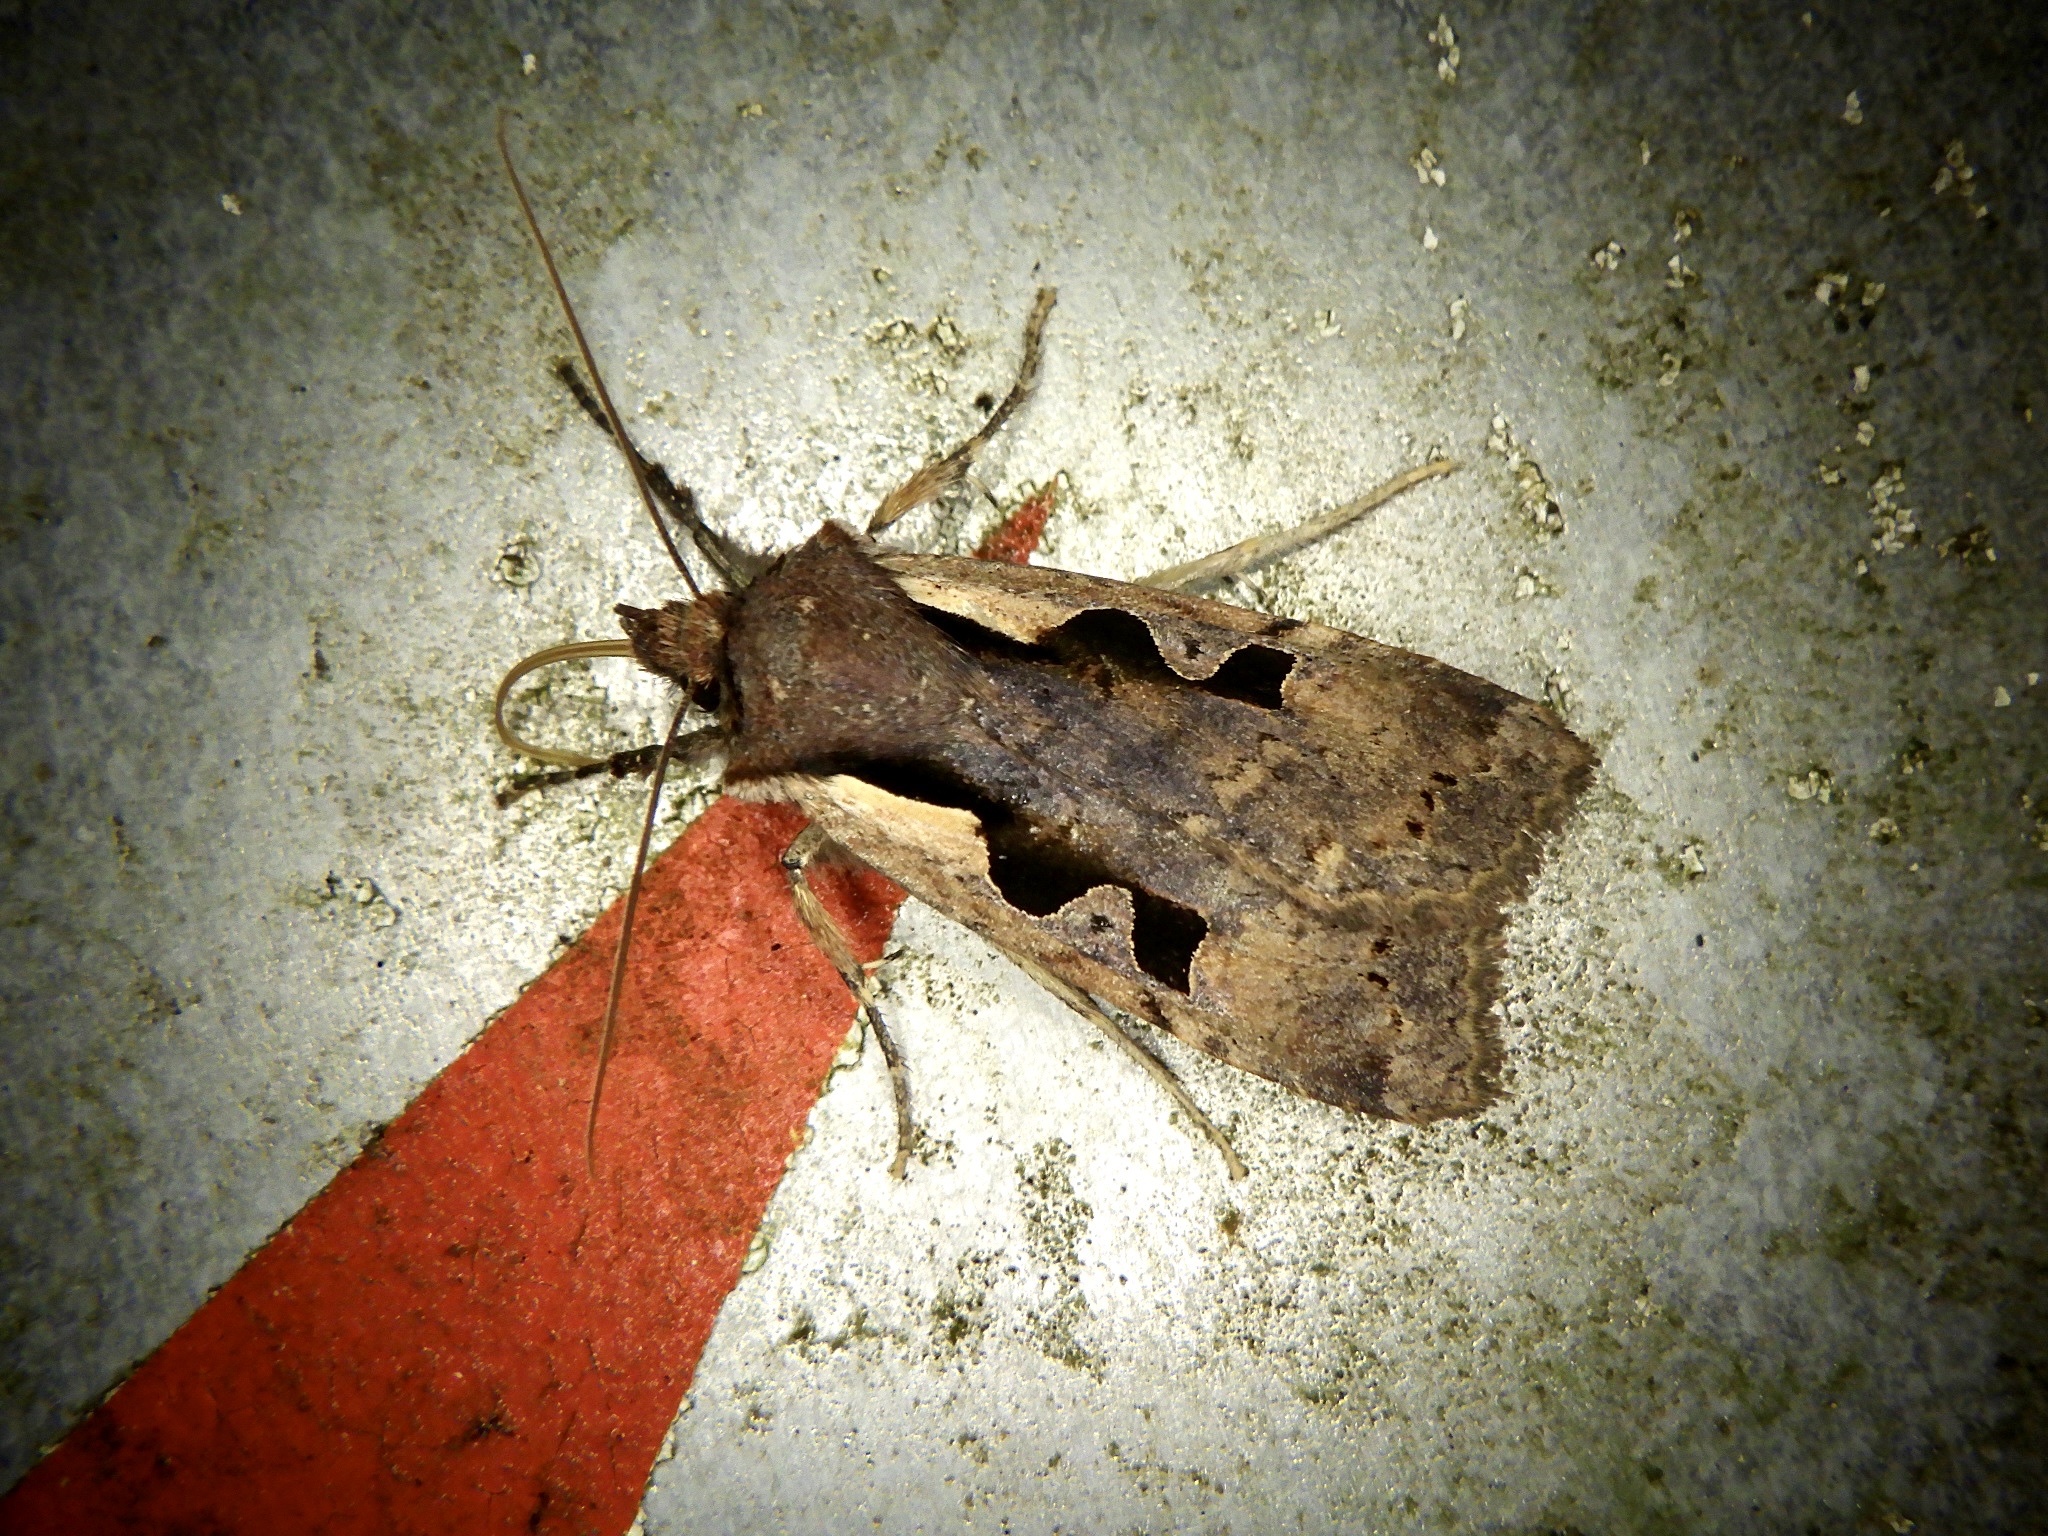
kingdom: Animalia
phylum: Arthropoda
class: Insecta
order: Lepidoptera
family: Noctuidae
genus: Sugitania
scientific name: Sugitania lepida
